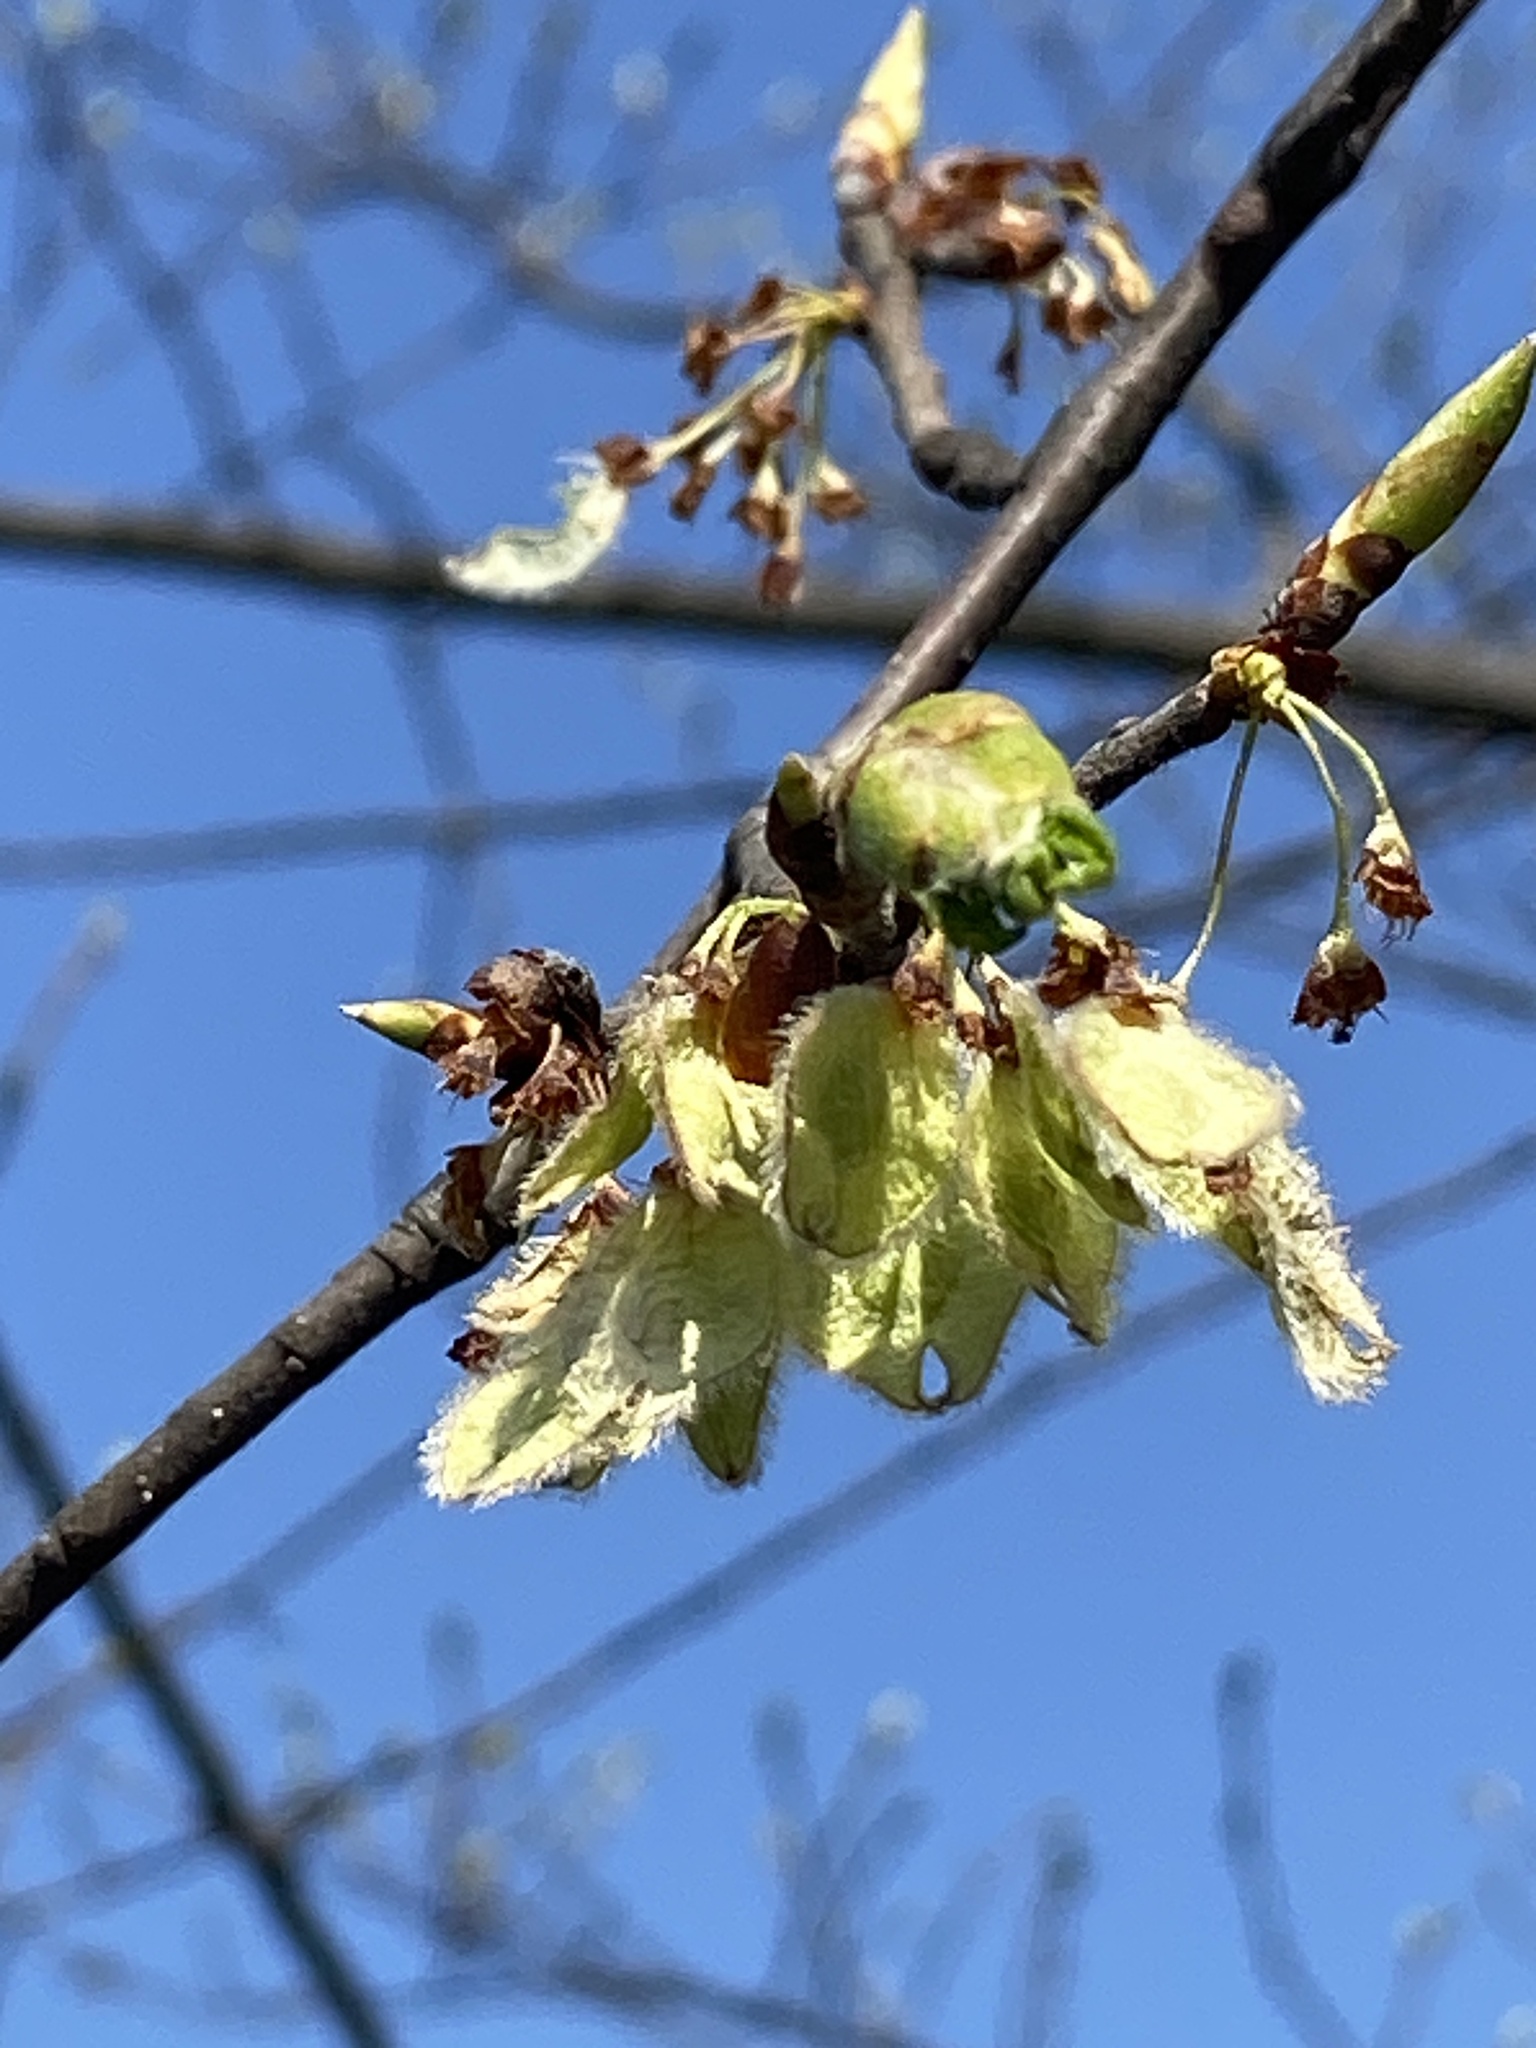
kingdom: Plantae
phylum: Tracheophyta
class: Magnoliopsida
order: Rosales
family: Ulmaceae
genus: Ulmus
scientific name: Ulmus americana
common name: American elm
